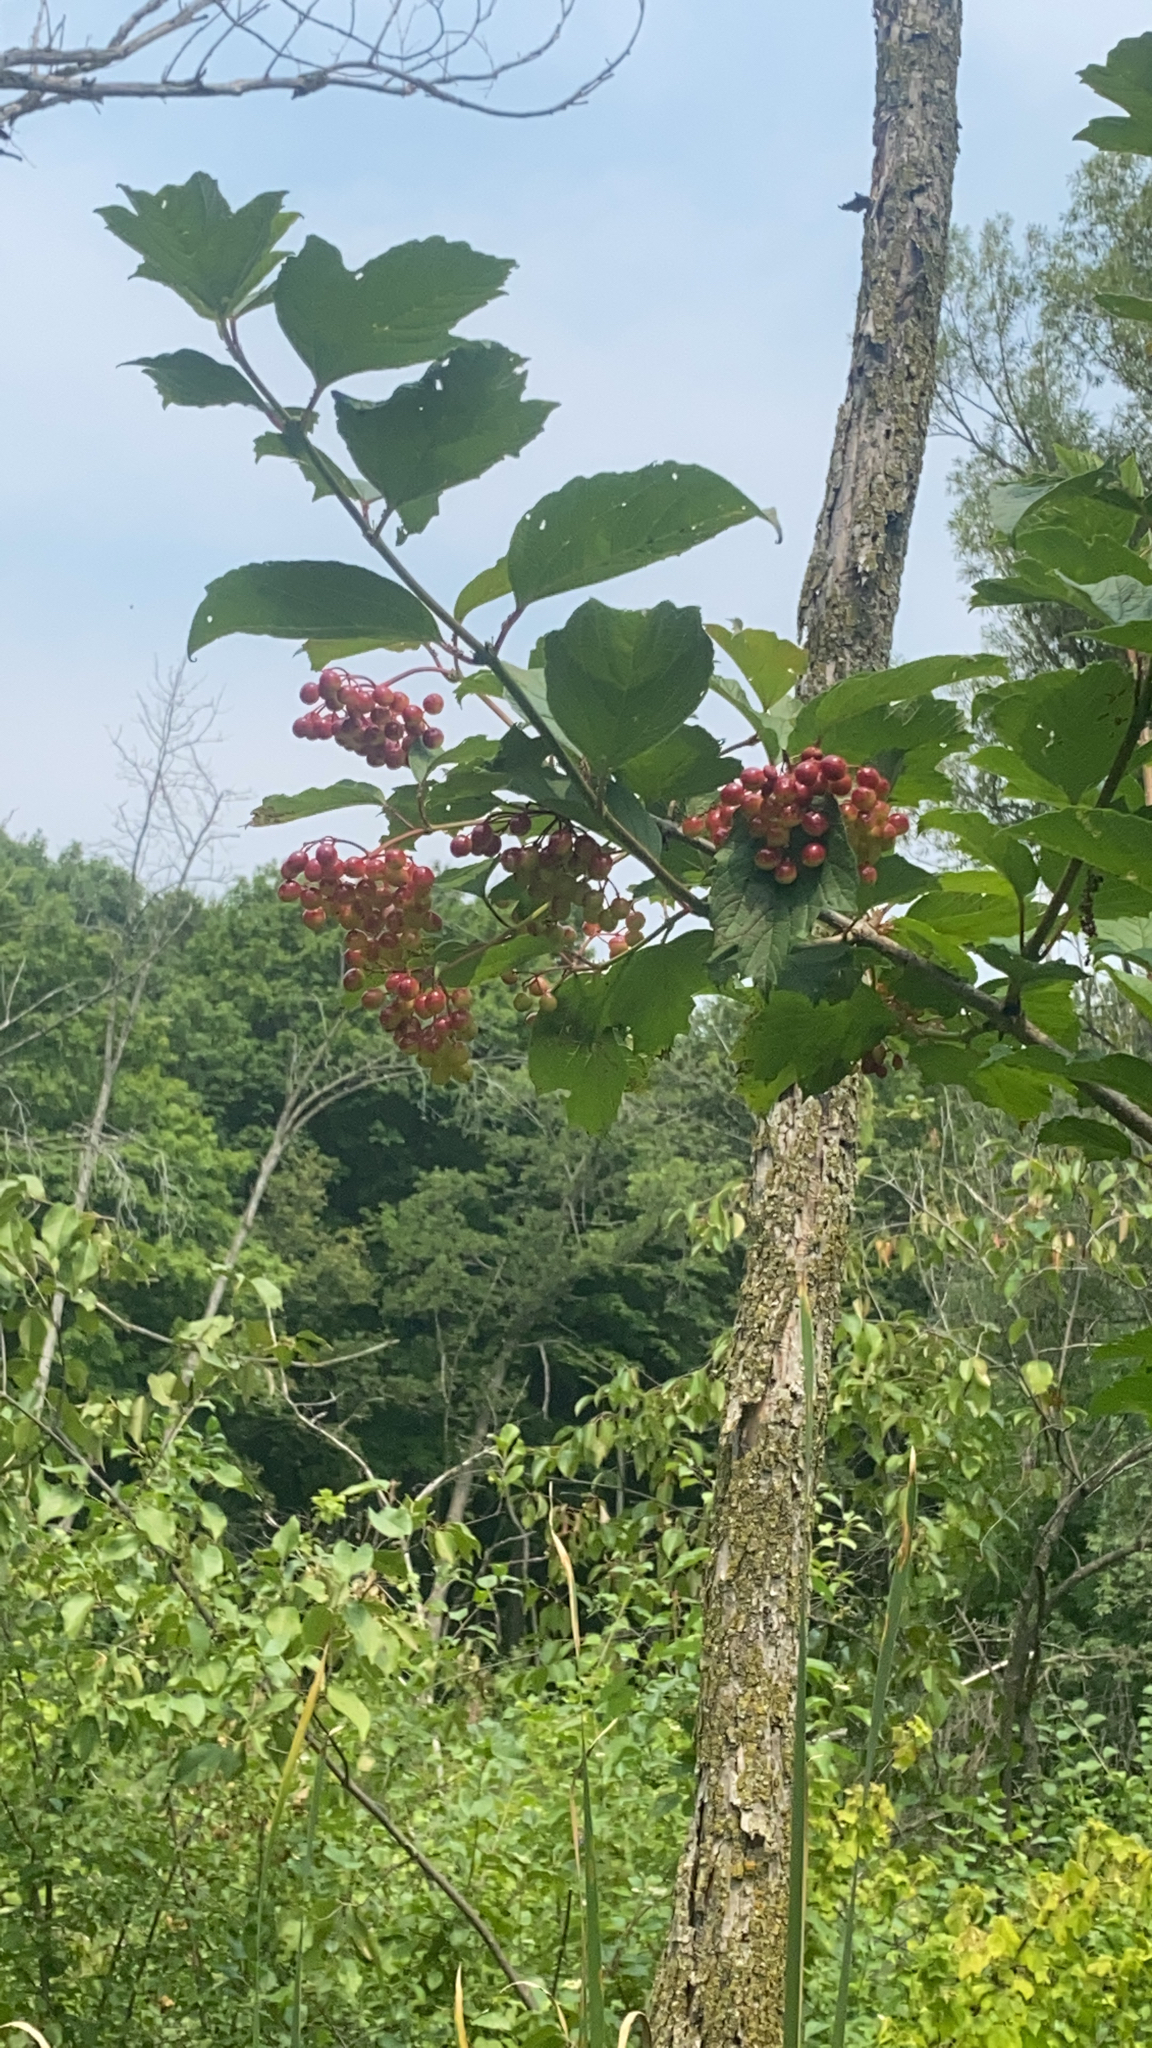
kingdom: Plantae
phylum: Tracheophyta
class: Magnoliopsida
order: Dipsacales
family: Viburnaceae
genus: Viburnum
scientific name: Viburnum opulus
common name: Guelder-rose
